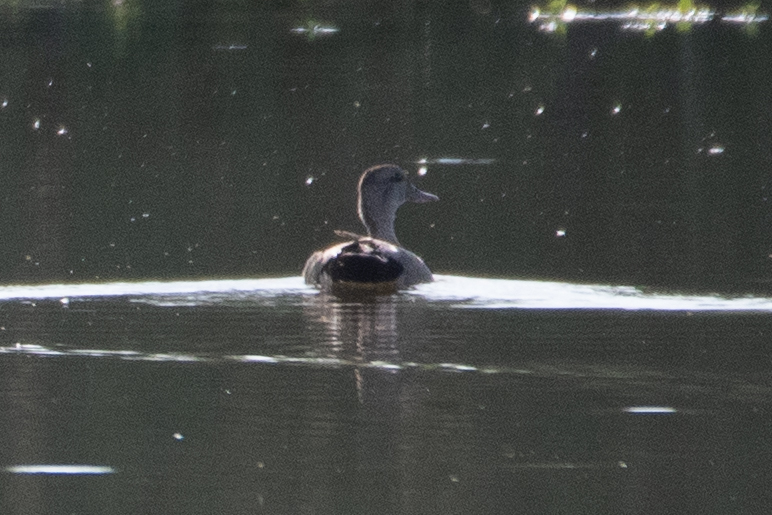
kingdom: Animalia
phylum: Chordata
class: Aves
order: Anseriformes
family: Anatidae
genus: Mareca
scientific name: Mareca strepera
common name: Gadwall
